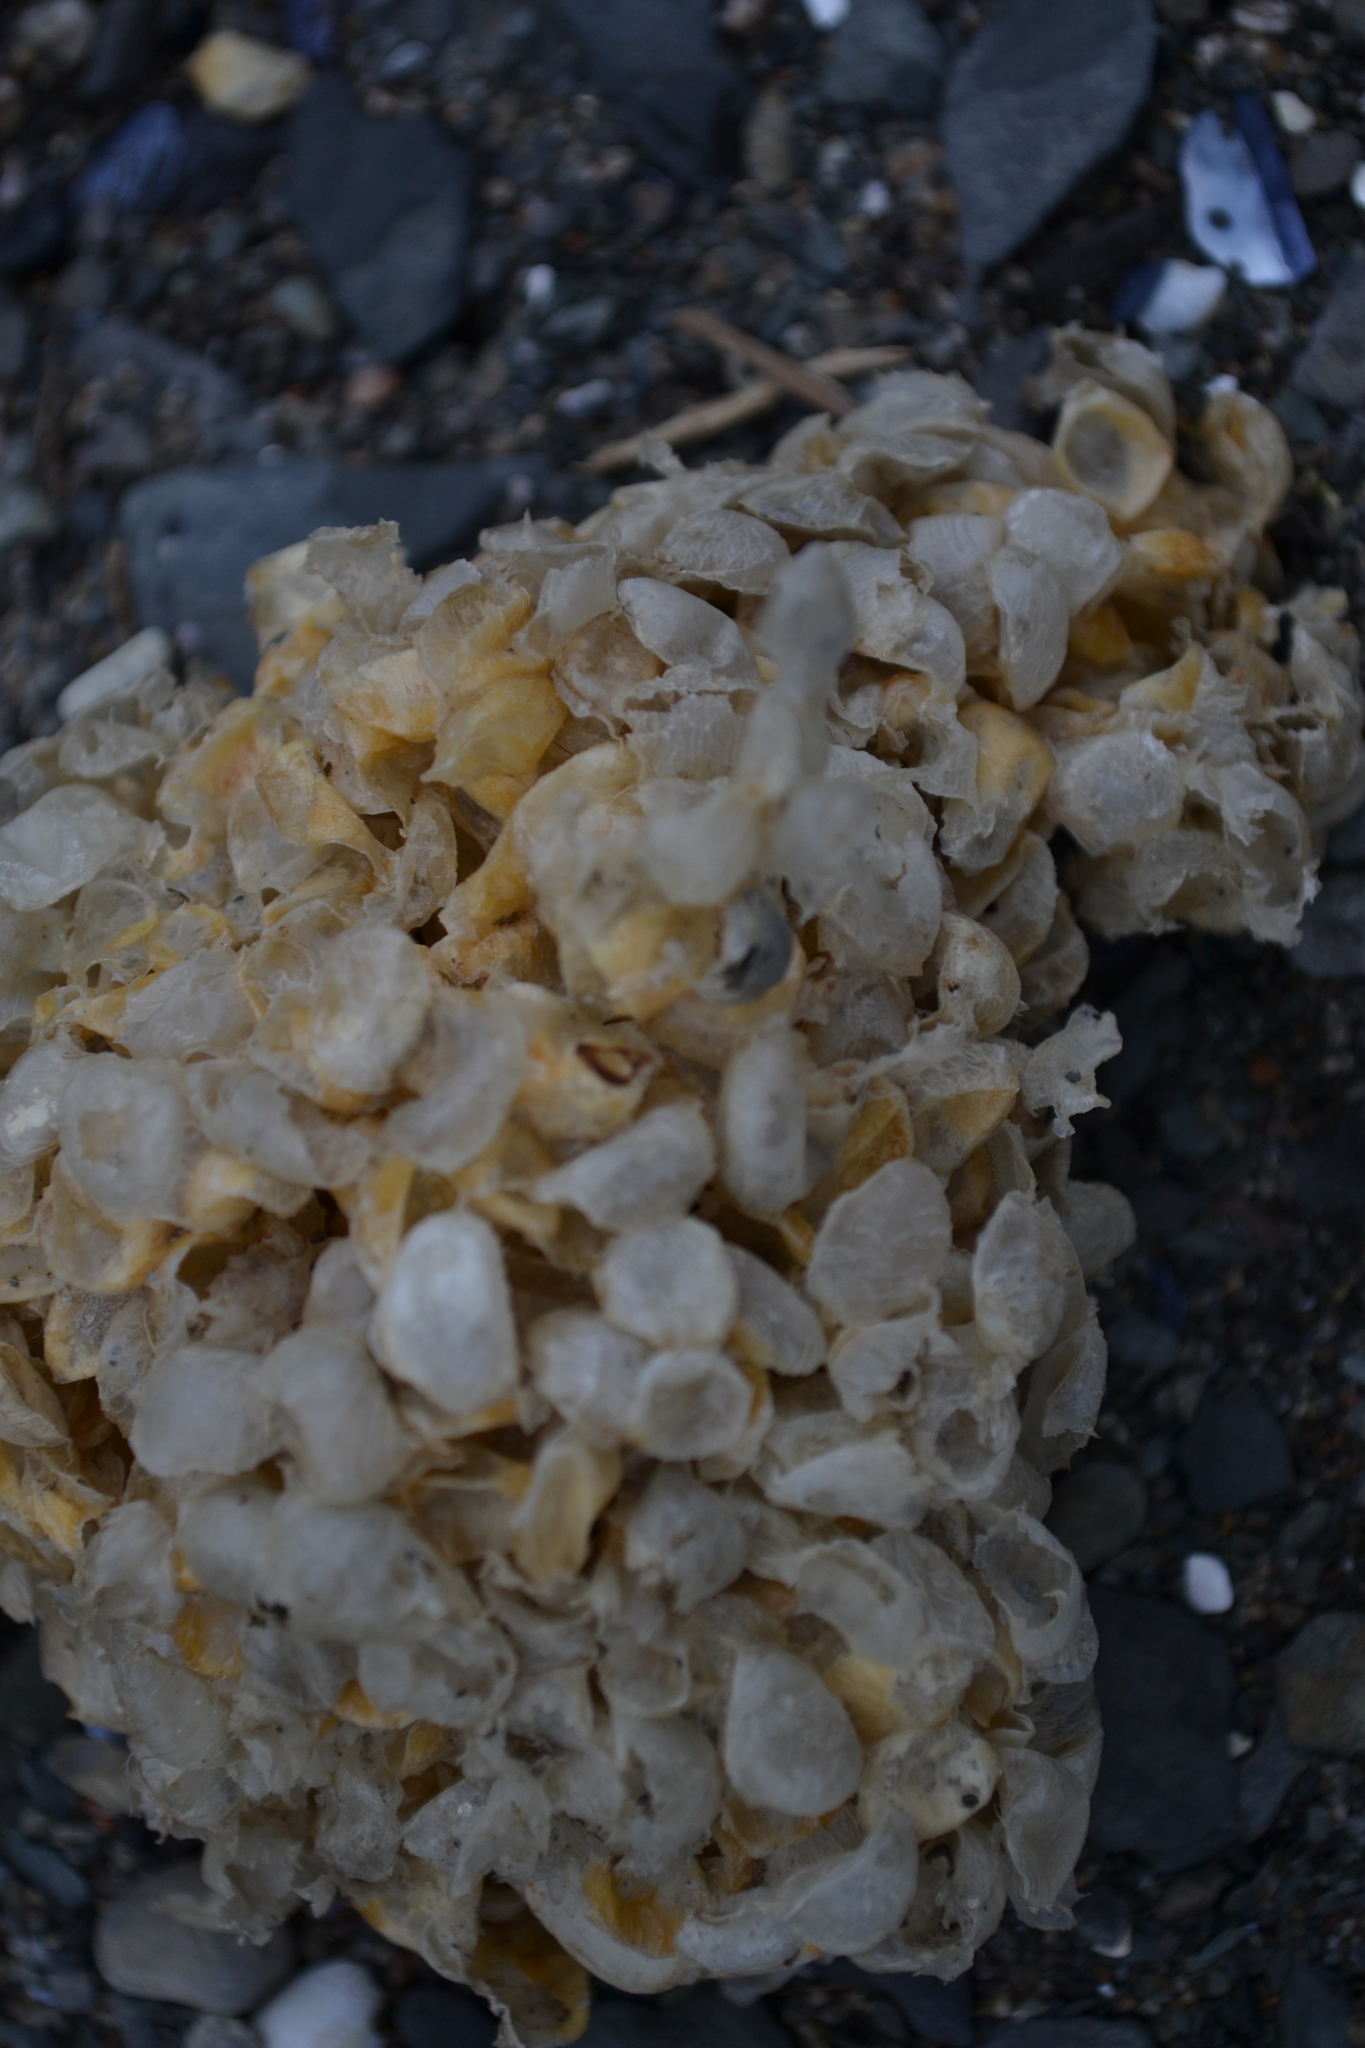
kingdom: Animalia
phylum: Mollusca
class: Gastropoda
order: Neogastropoda
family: Buccinidae
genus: Buccinum
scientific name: Buccinum undatum
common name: Common whelk
